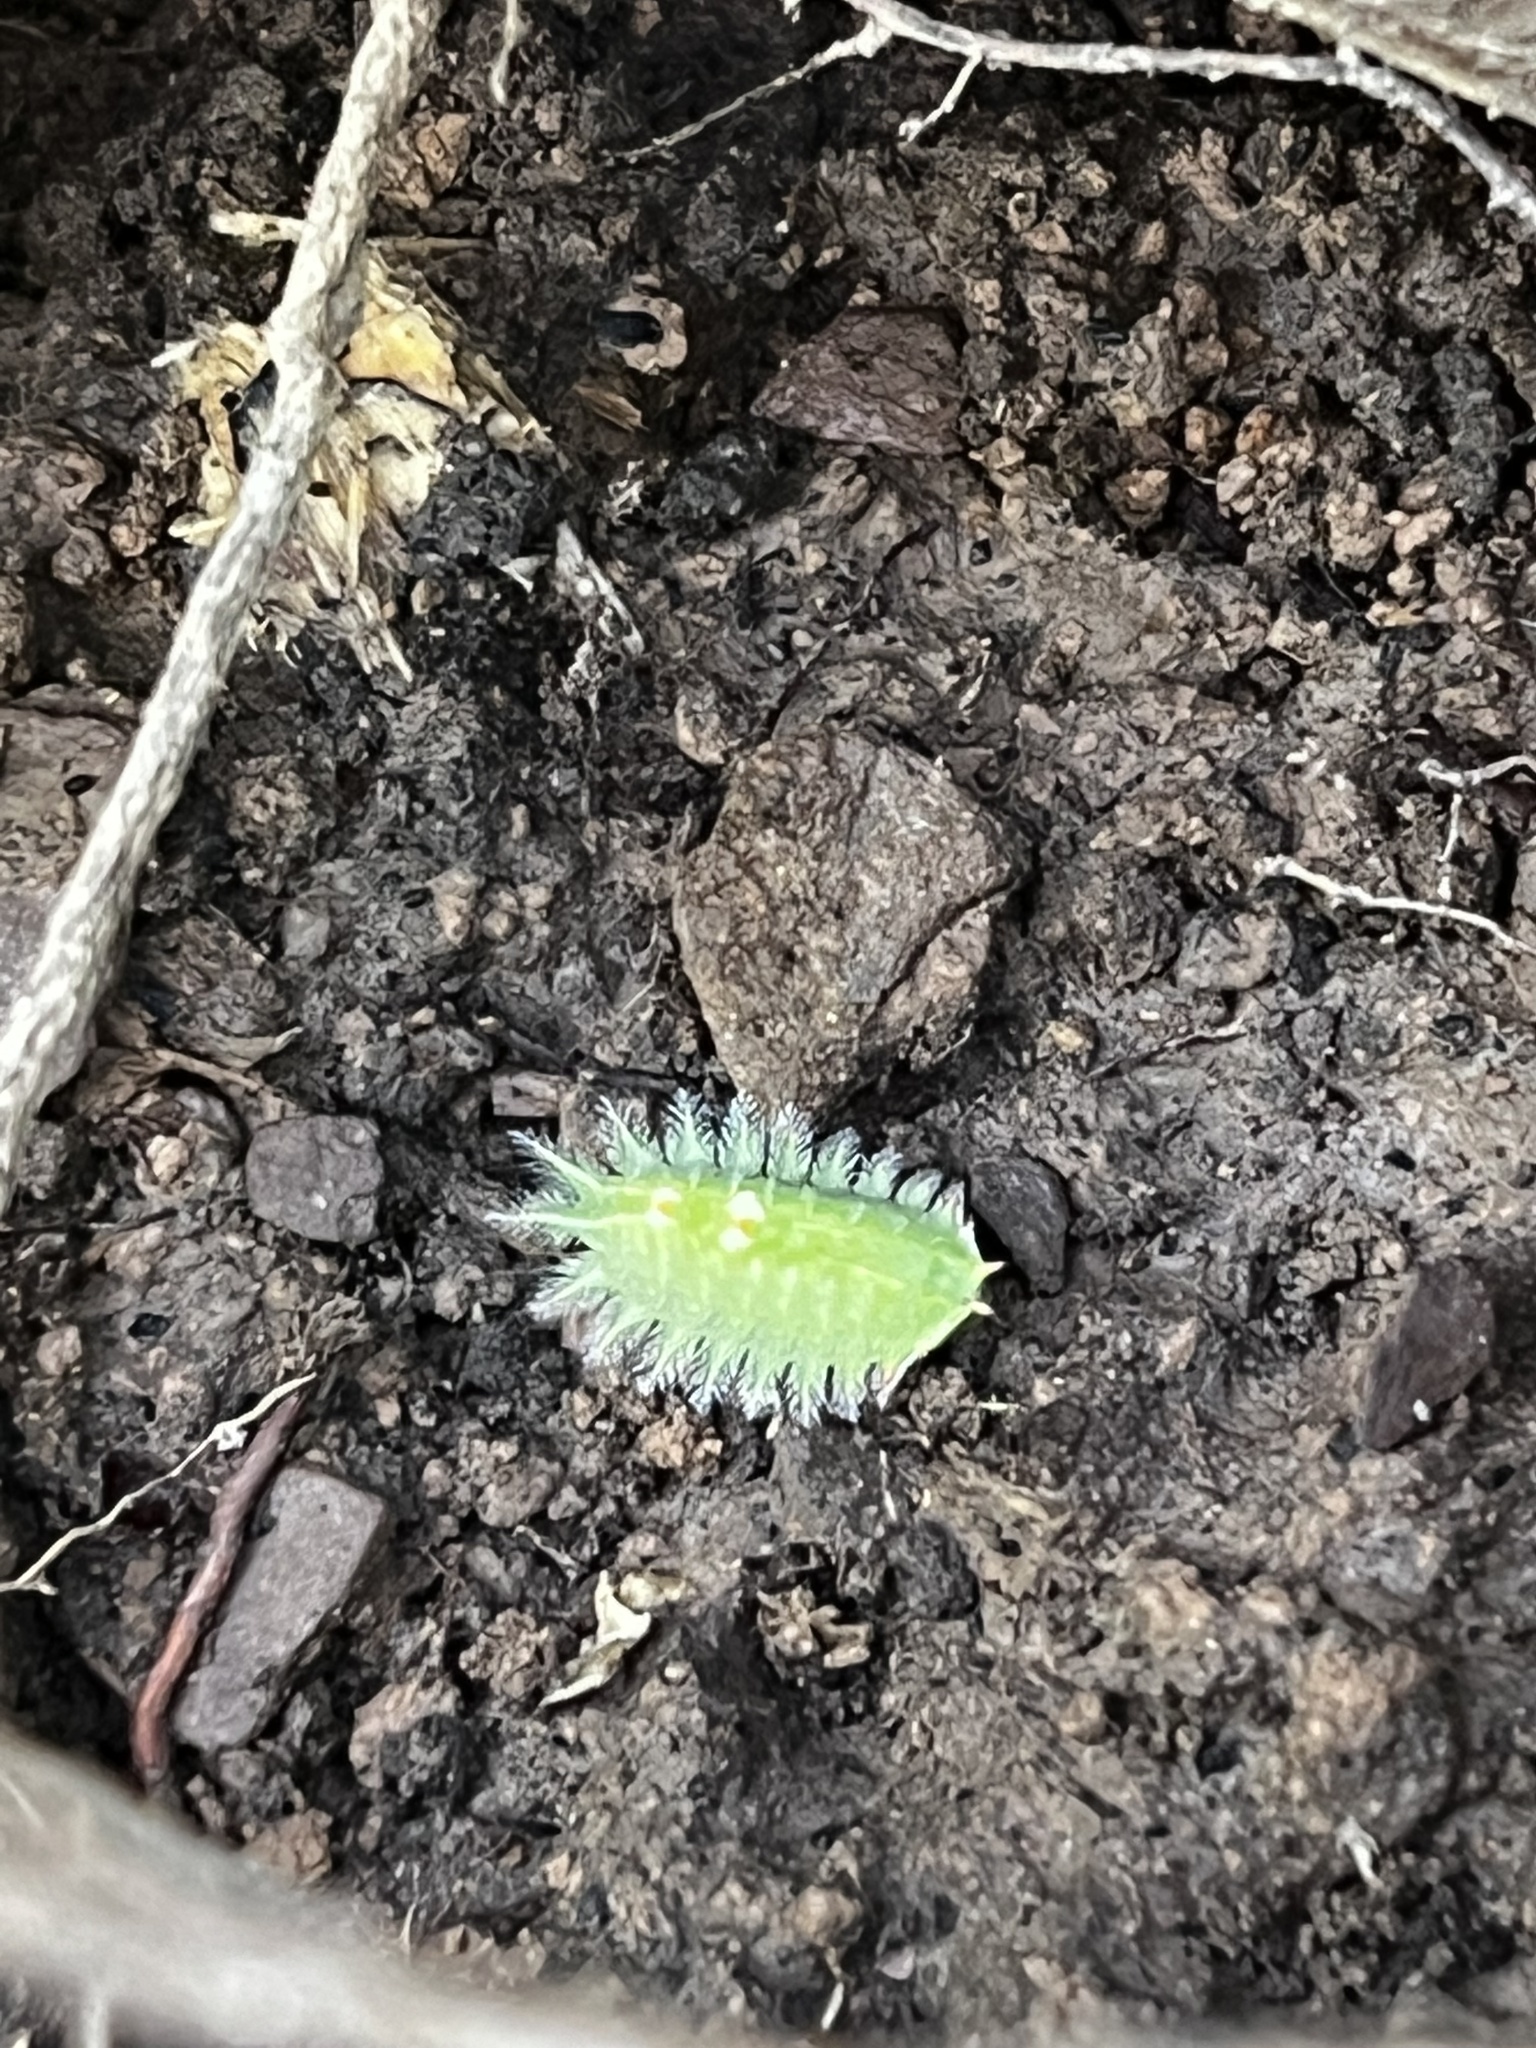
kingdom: Animalia
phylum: Arthropoda
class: Insecta
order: Lepidoptera
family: Limacodidae
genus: Isa
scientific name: Isa textula
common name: Crowned slug moth
